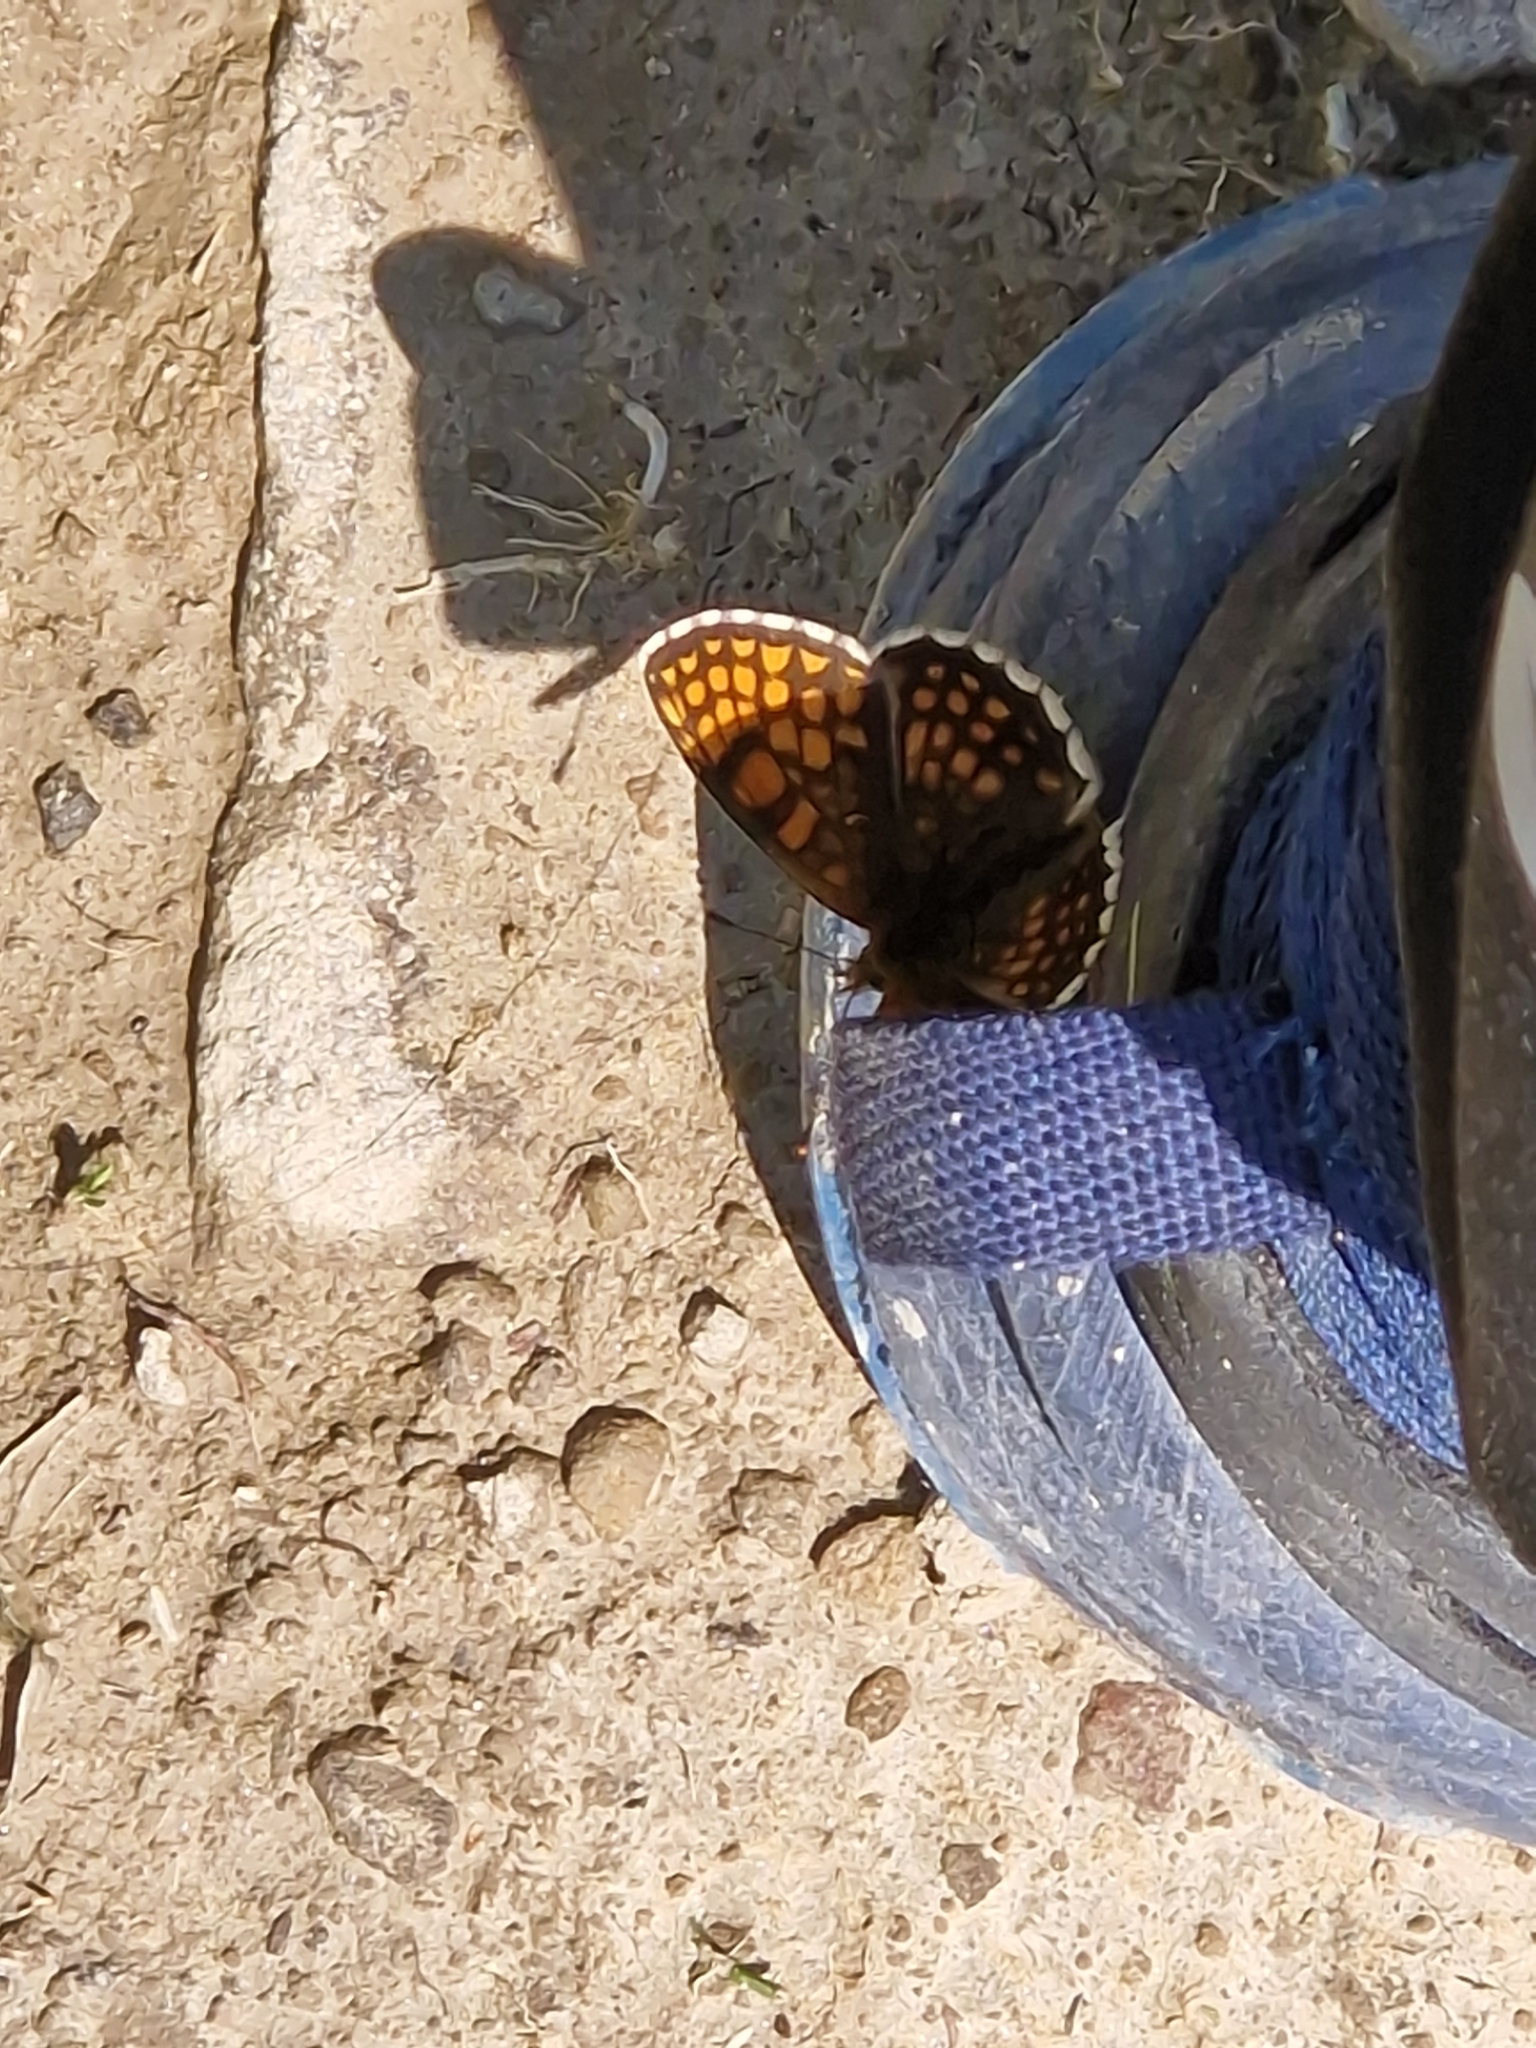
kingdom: Animalia
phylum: Arthropoda
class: Insecta
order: Lepidoptera
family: Nymphalidae
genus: Melitaea
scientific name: Melitaea athalia
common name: Heath fritillary
